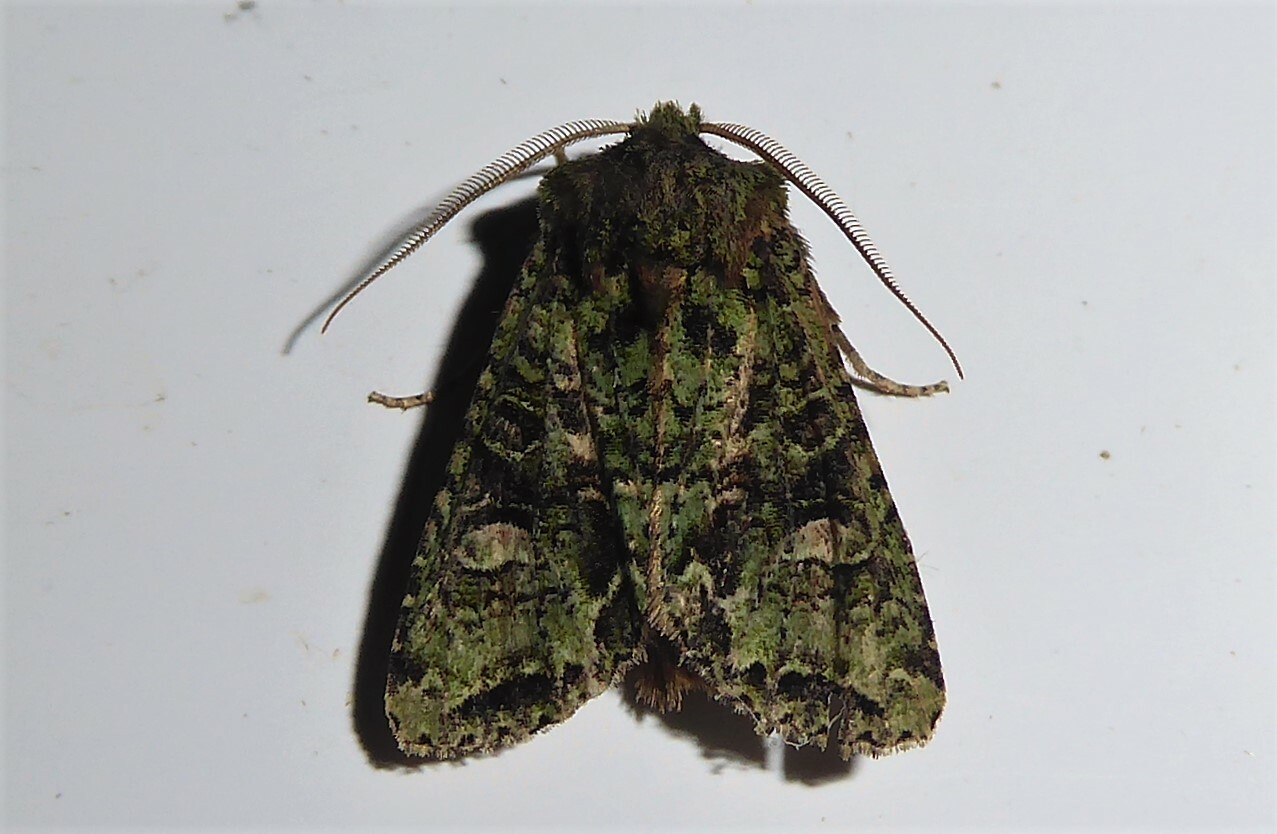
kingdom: Animalia
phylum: Arthropoda
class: Insecta
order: Lepidoptera
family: Noctuidae
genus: Ichneutica
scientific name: Ichneutica
